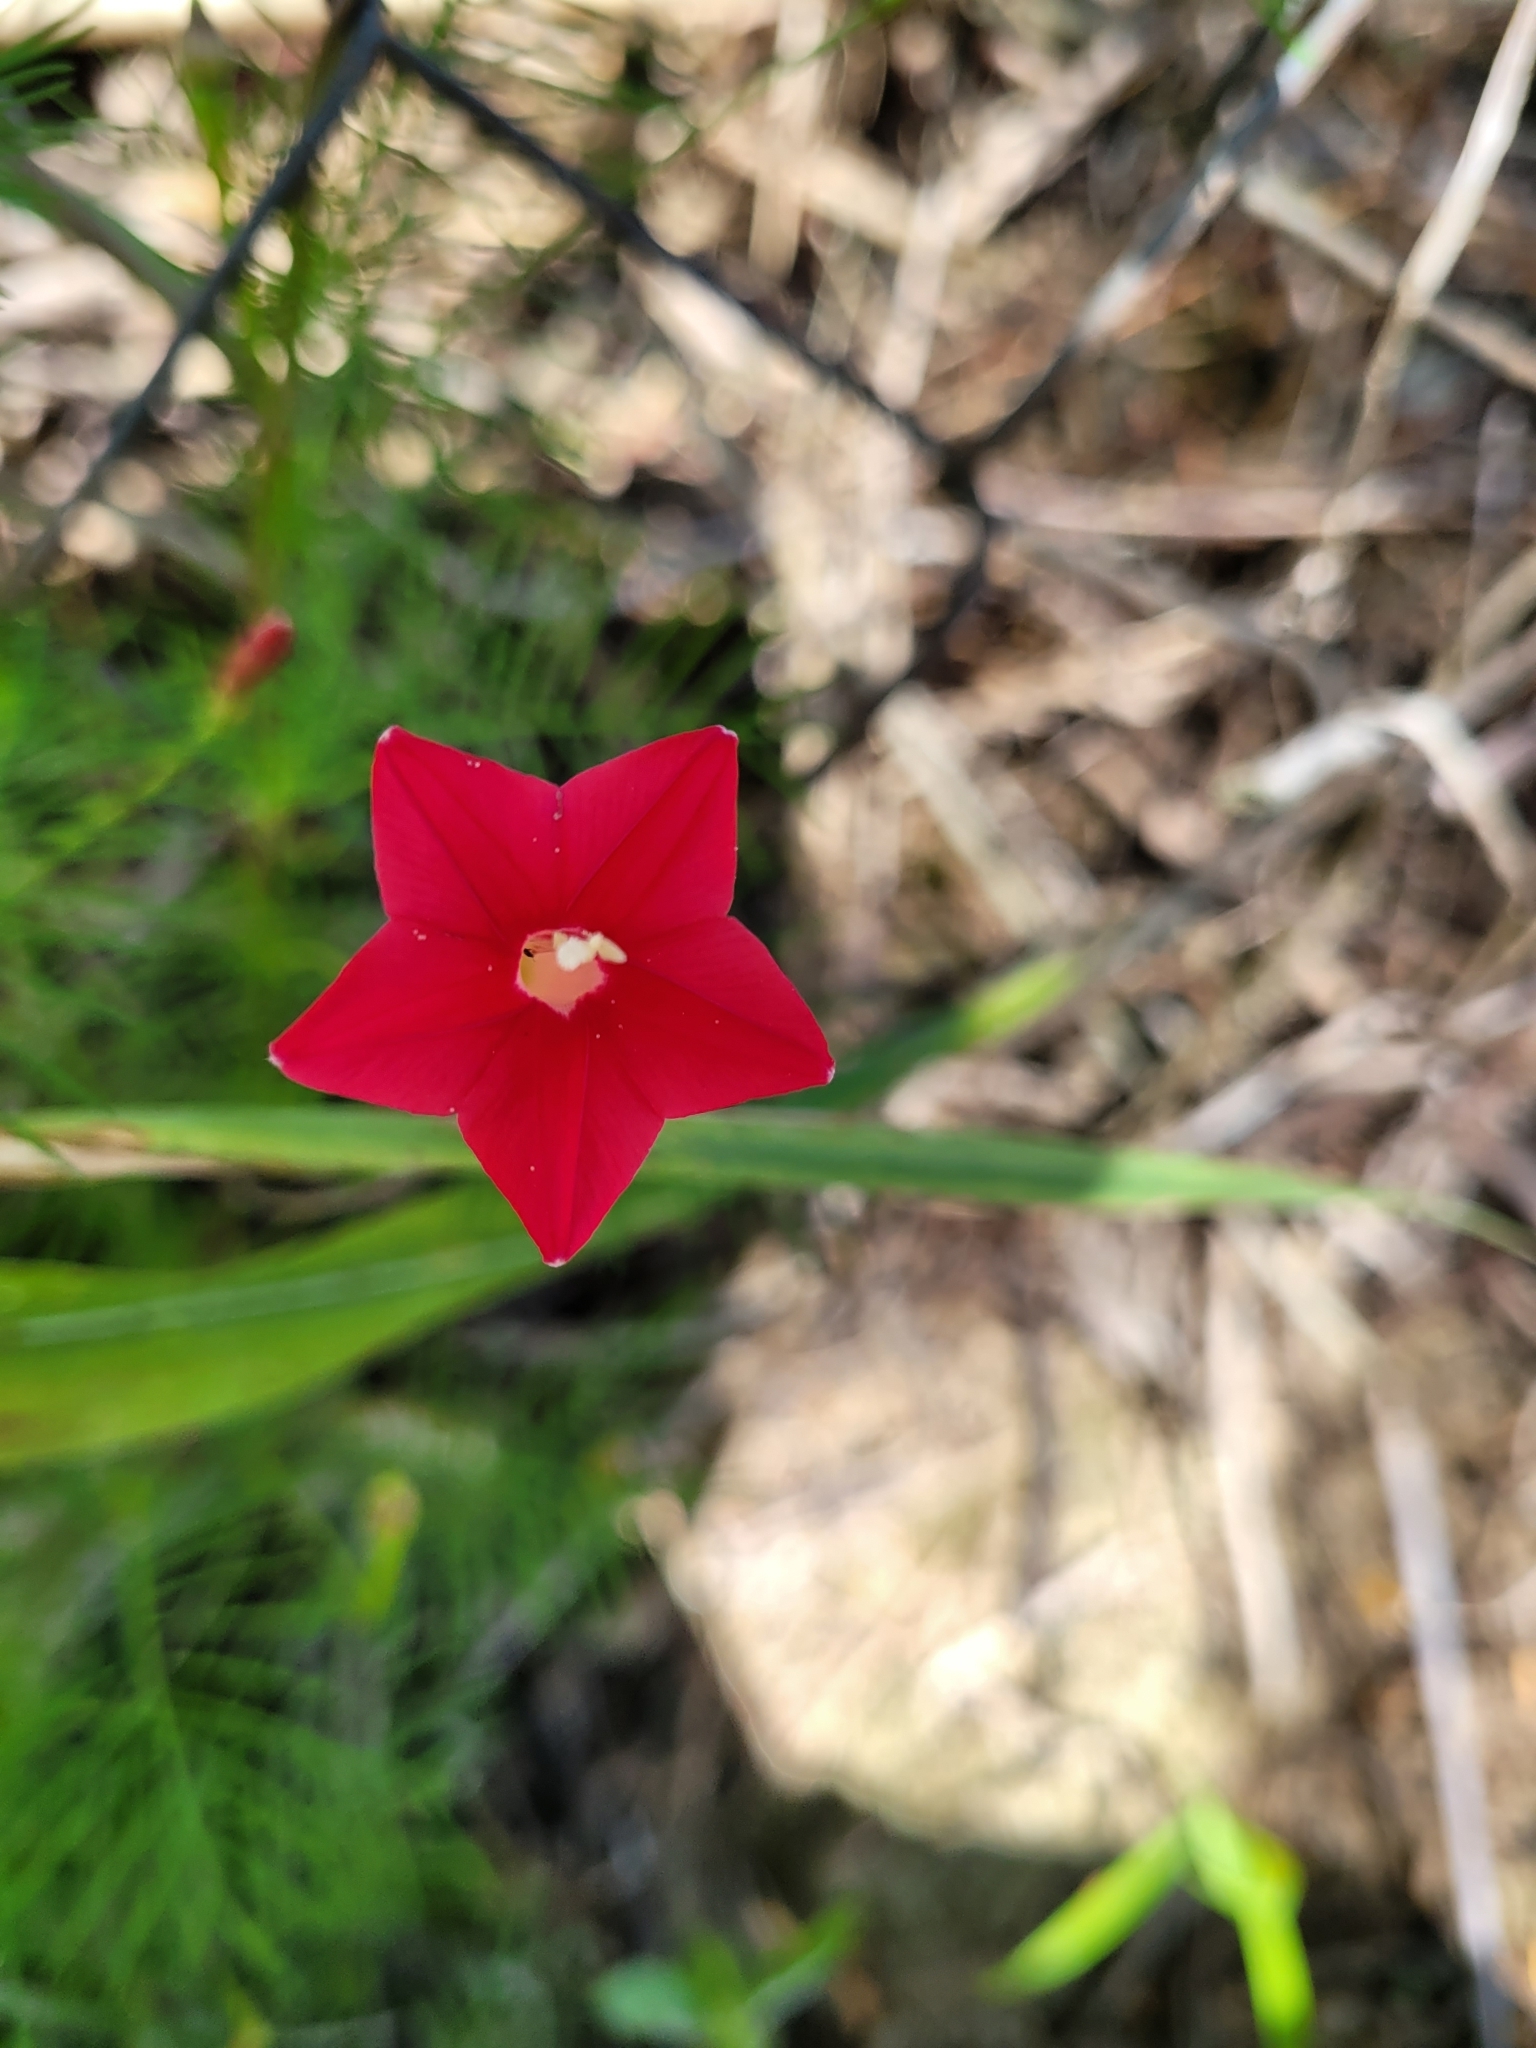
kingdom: Plantae
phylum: Tracheophyta
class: Magnoliopsida
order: Solanales
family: Convolvulaceae
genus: Ipomoea
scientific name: Ipomoea quamoclit
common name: Cypress vine
